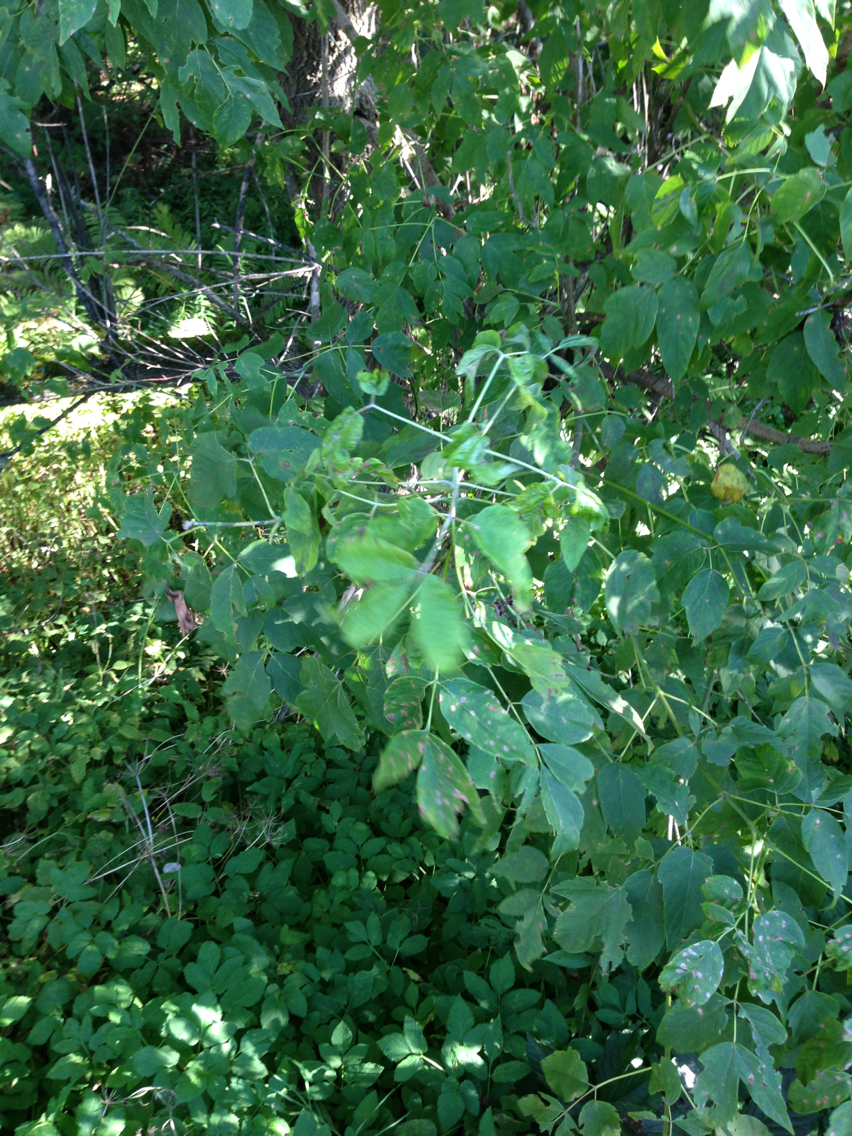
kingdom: Plantae
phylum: Tracheophyta
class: Magnoliopsida
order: Sapindales
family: Sapindaceae
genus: Acer
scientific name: Acer negundo
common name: Ashleaf maple
